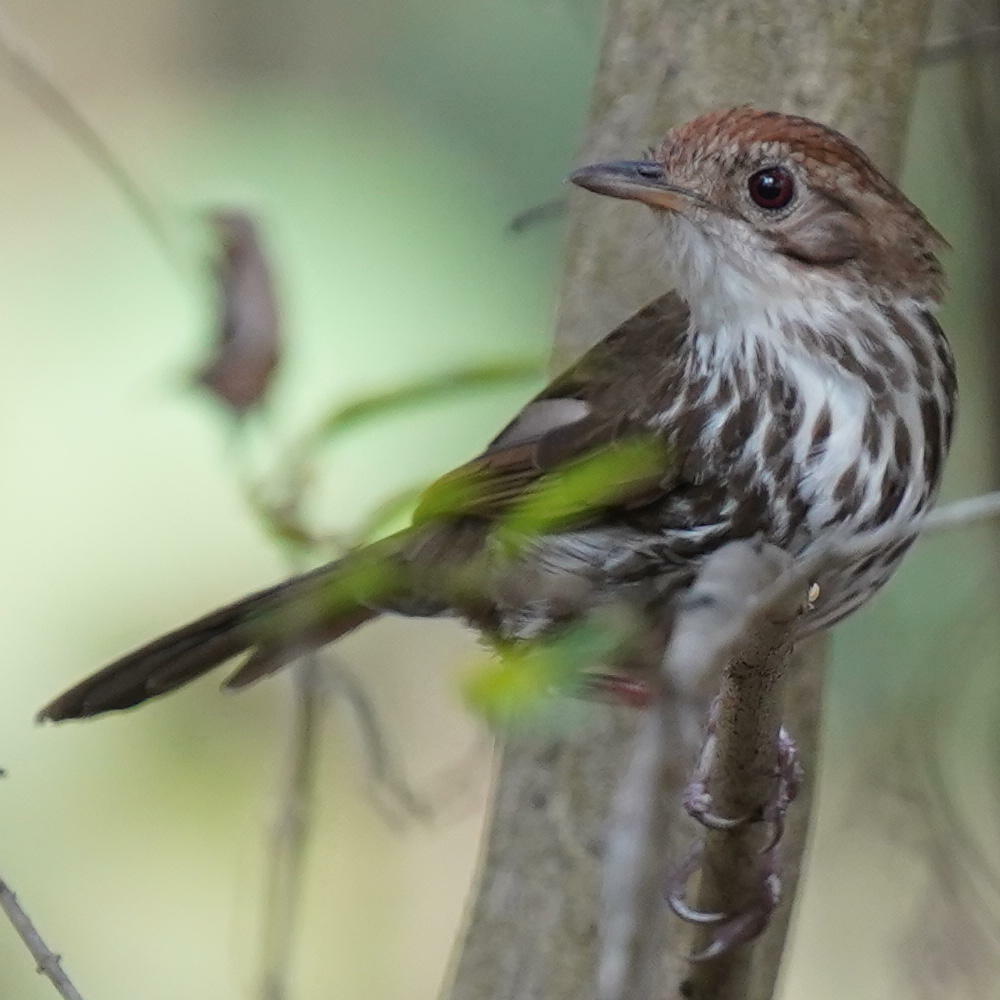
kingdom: Animalia
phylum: Chordata
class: Aves
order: Passeriformes
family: Pellorneidae
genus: Pellorneum
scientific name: Pellorneum ruficeps
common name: Puff-throated babbler
